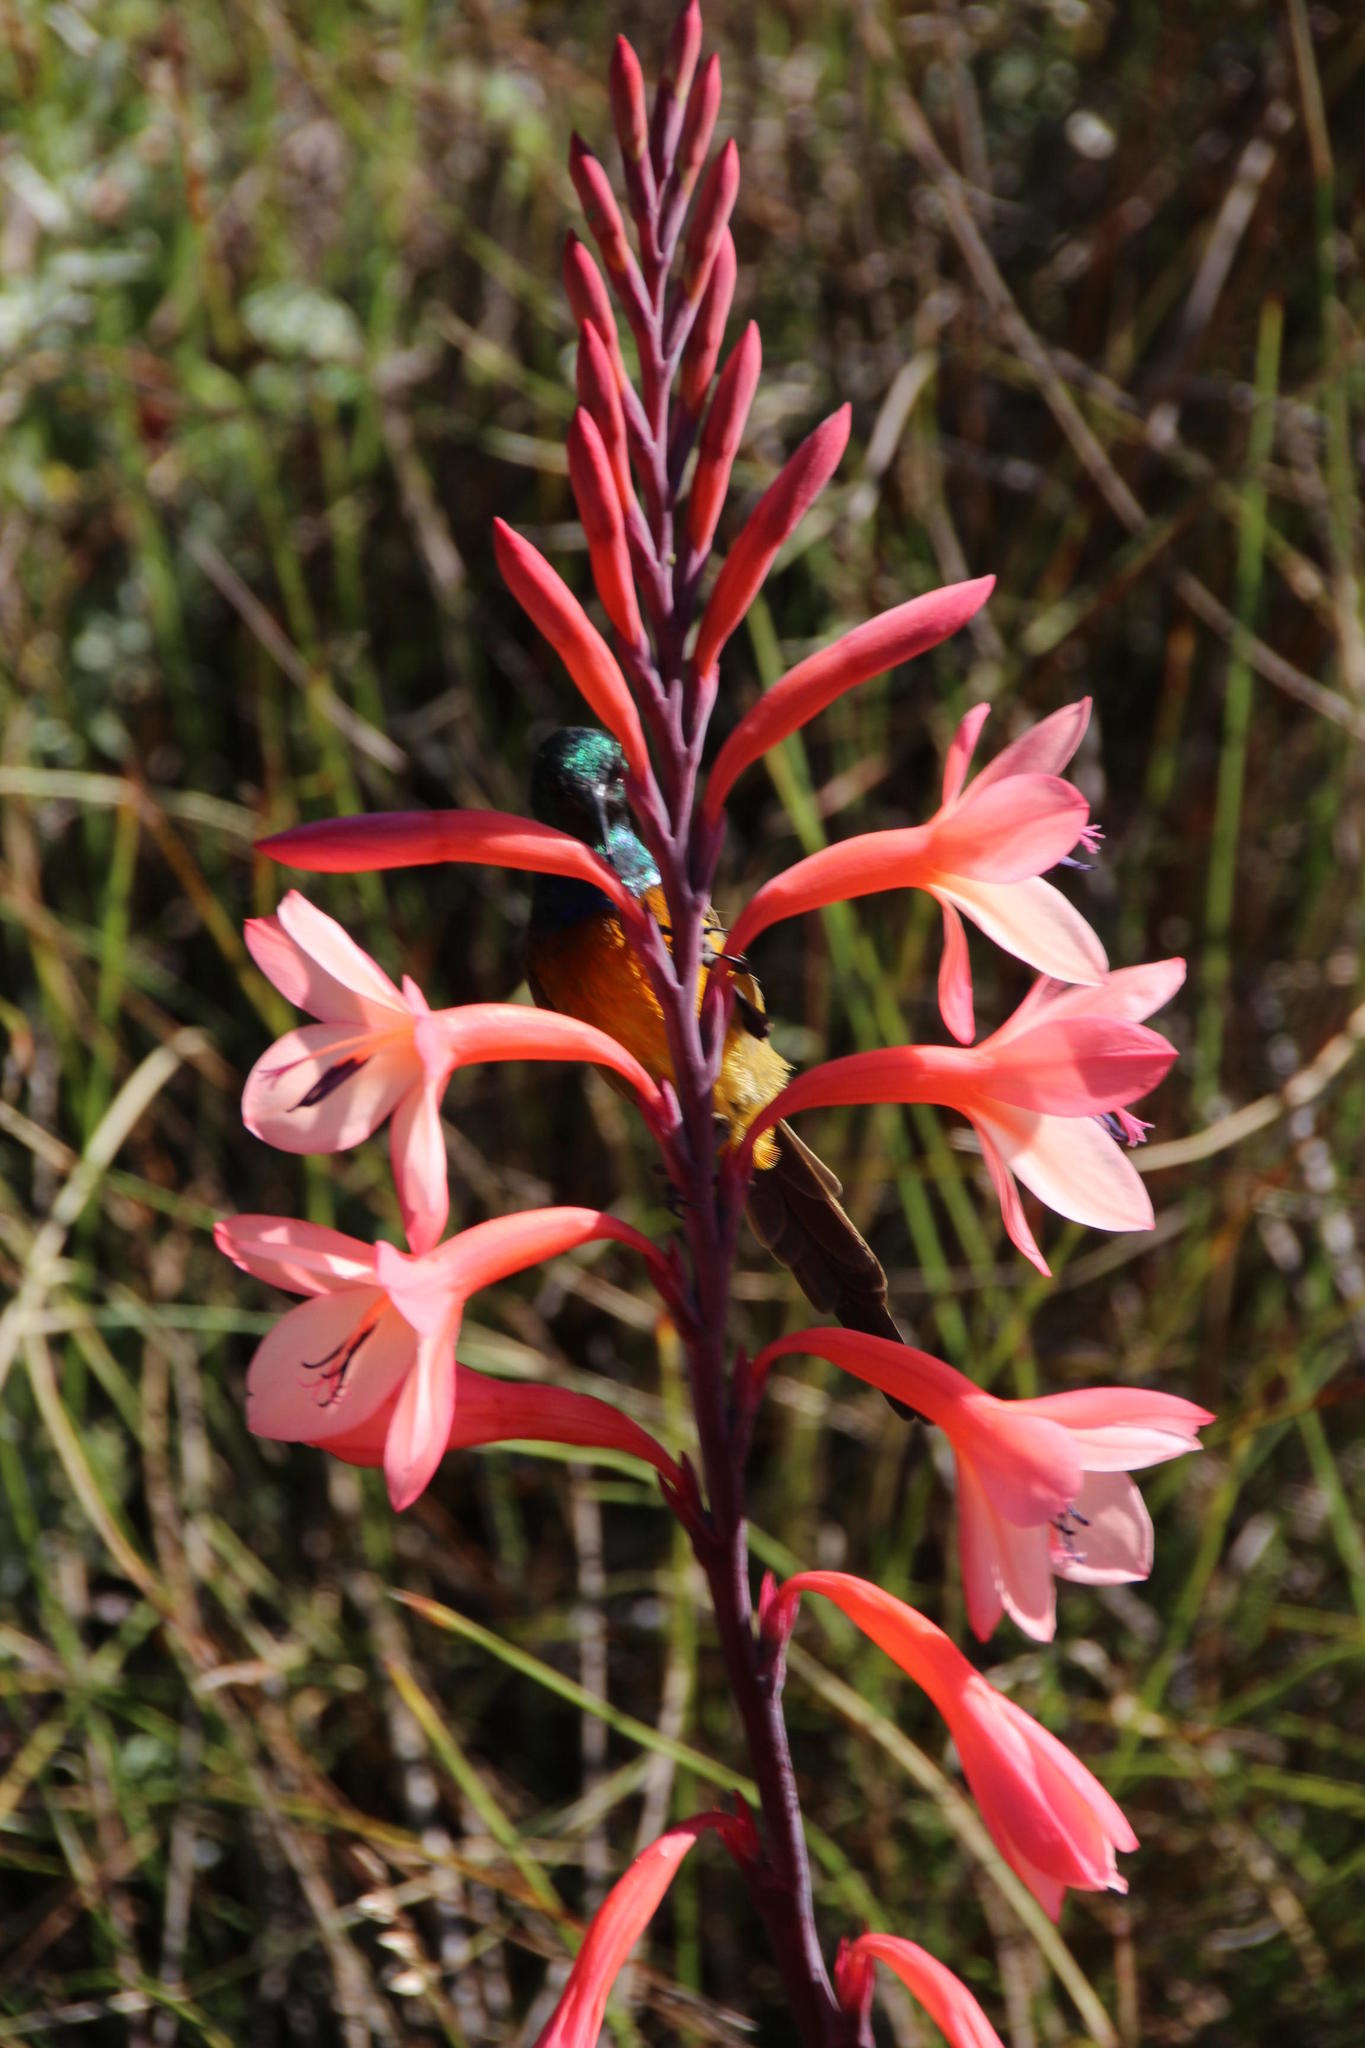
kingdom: Plantae
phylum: Tracheophyta
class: Liliopsida
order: Asparagales
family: Iridaceae
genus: Watsonia
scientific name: Watsonia tabularis
